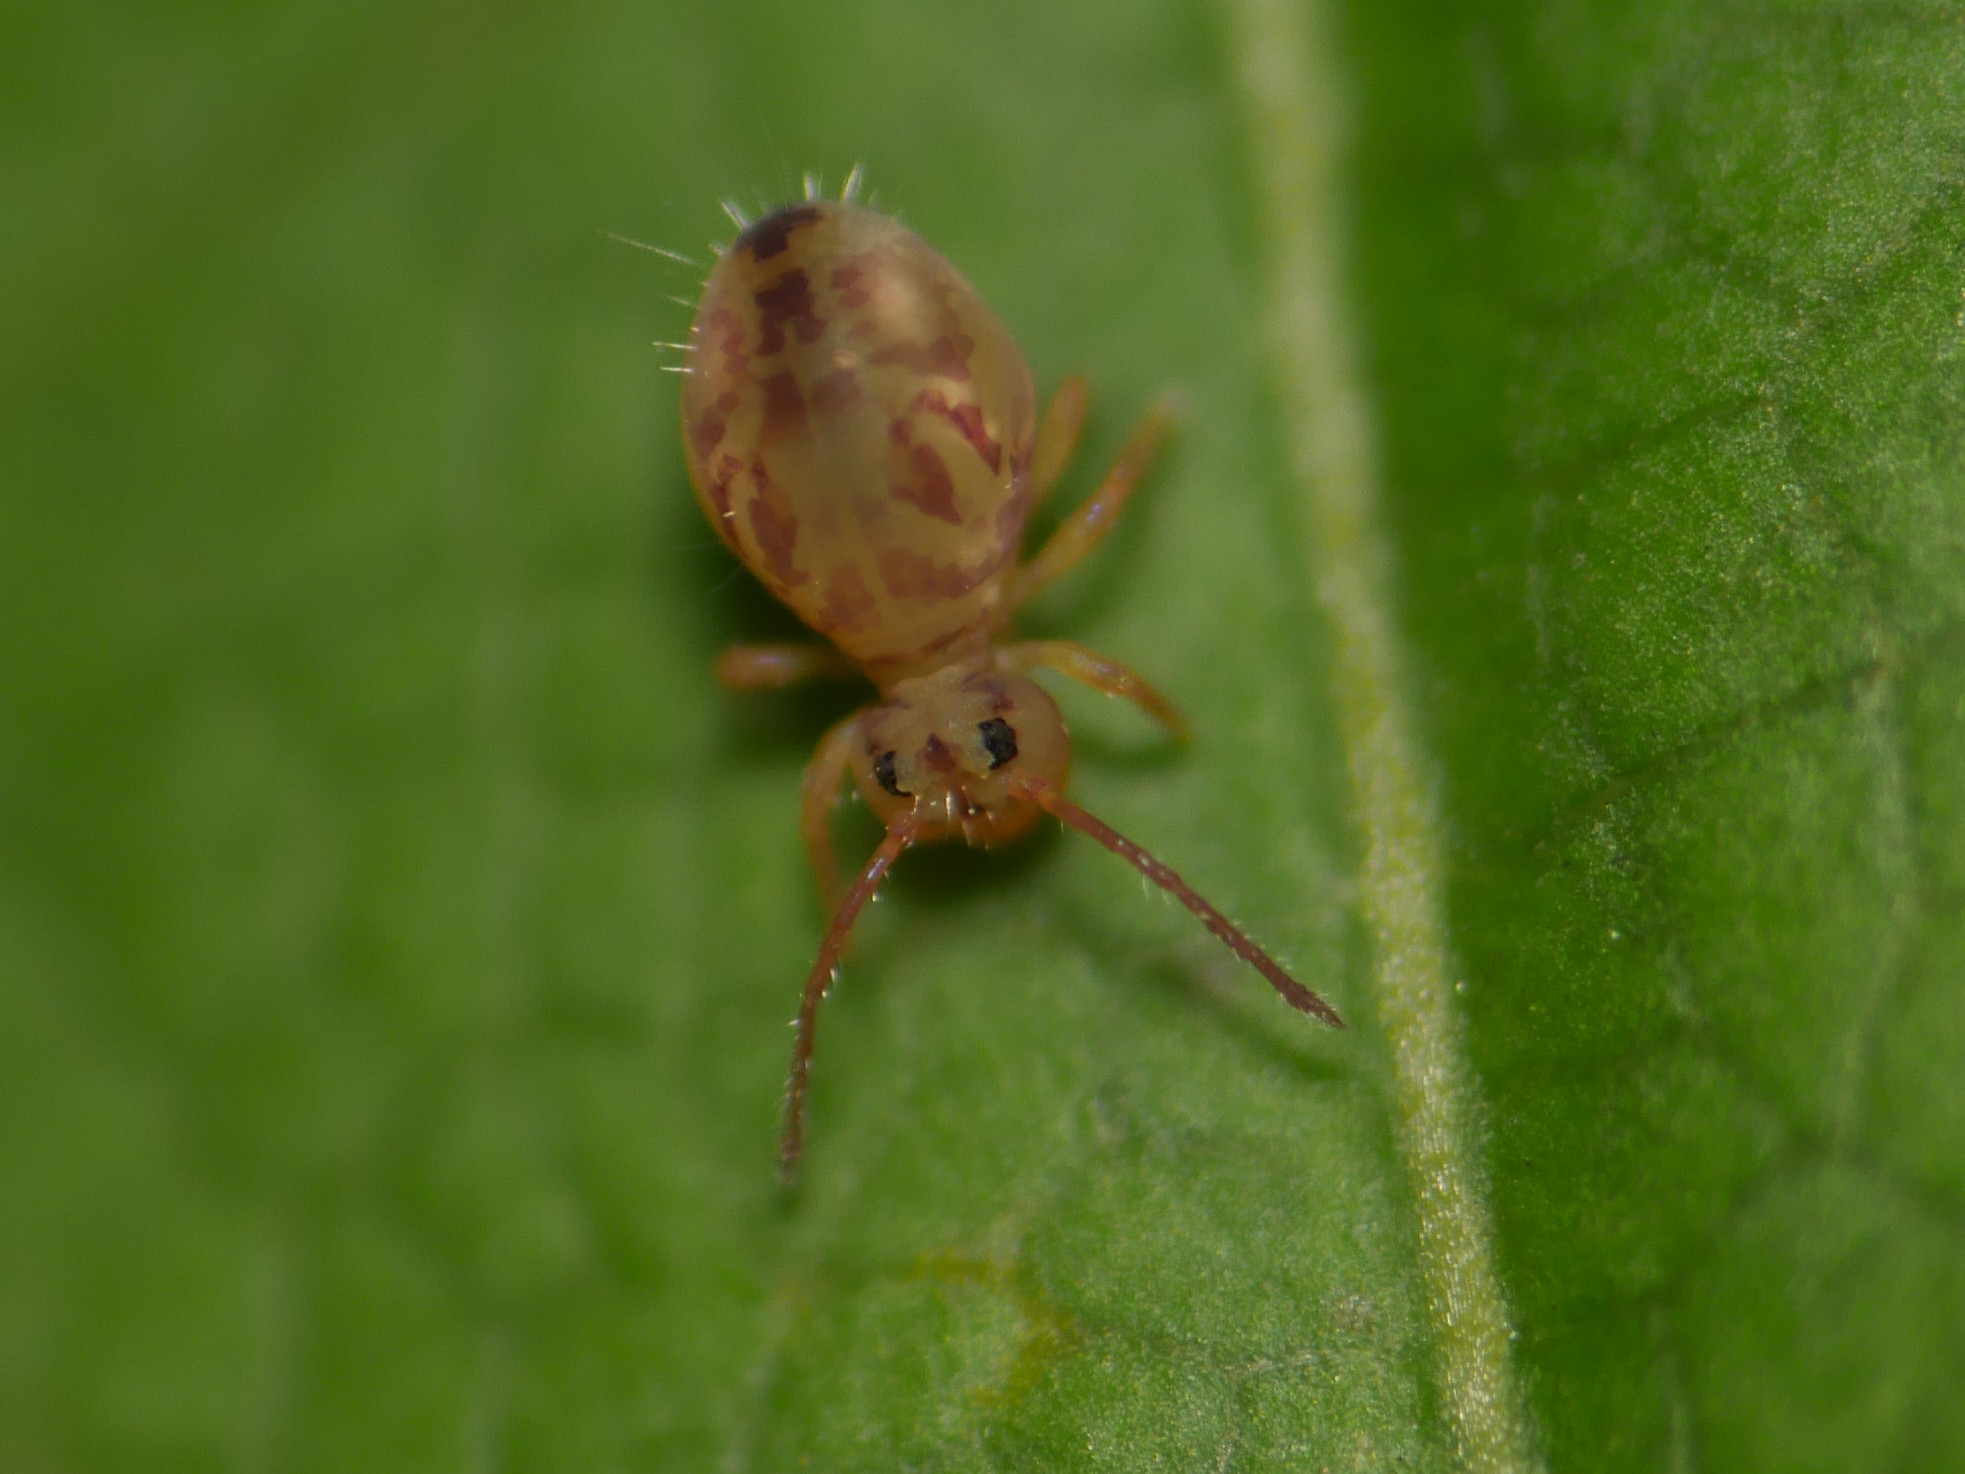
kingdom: Animalia
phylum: Arthropoda
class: Collembola
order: Symphypleona
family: Dicyrtomidae
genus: Dicyrtomina
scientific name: Dicyrtomina ornata
